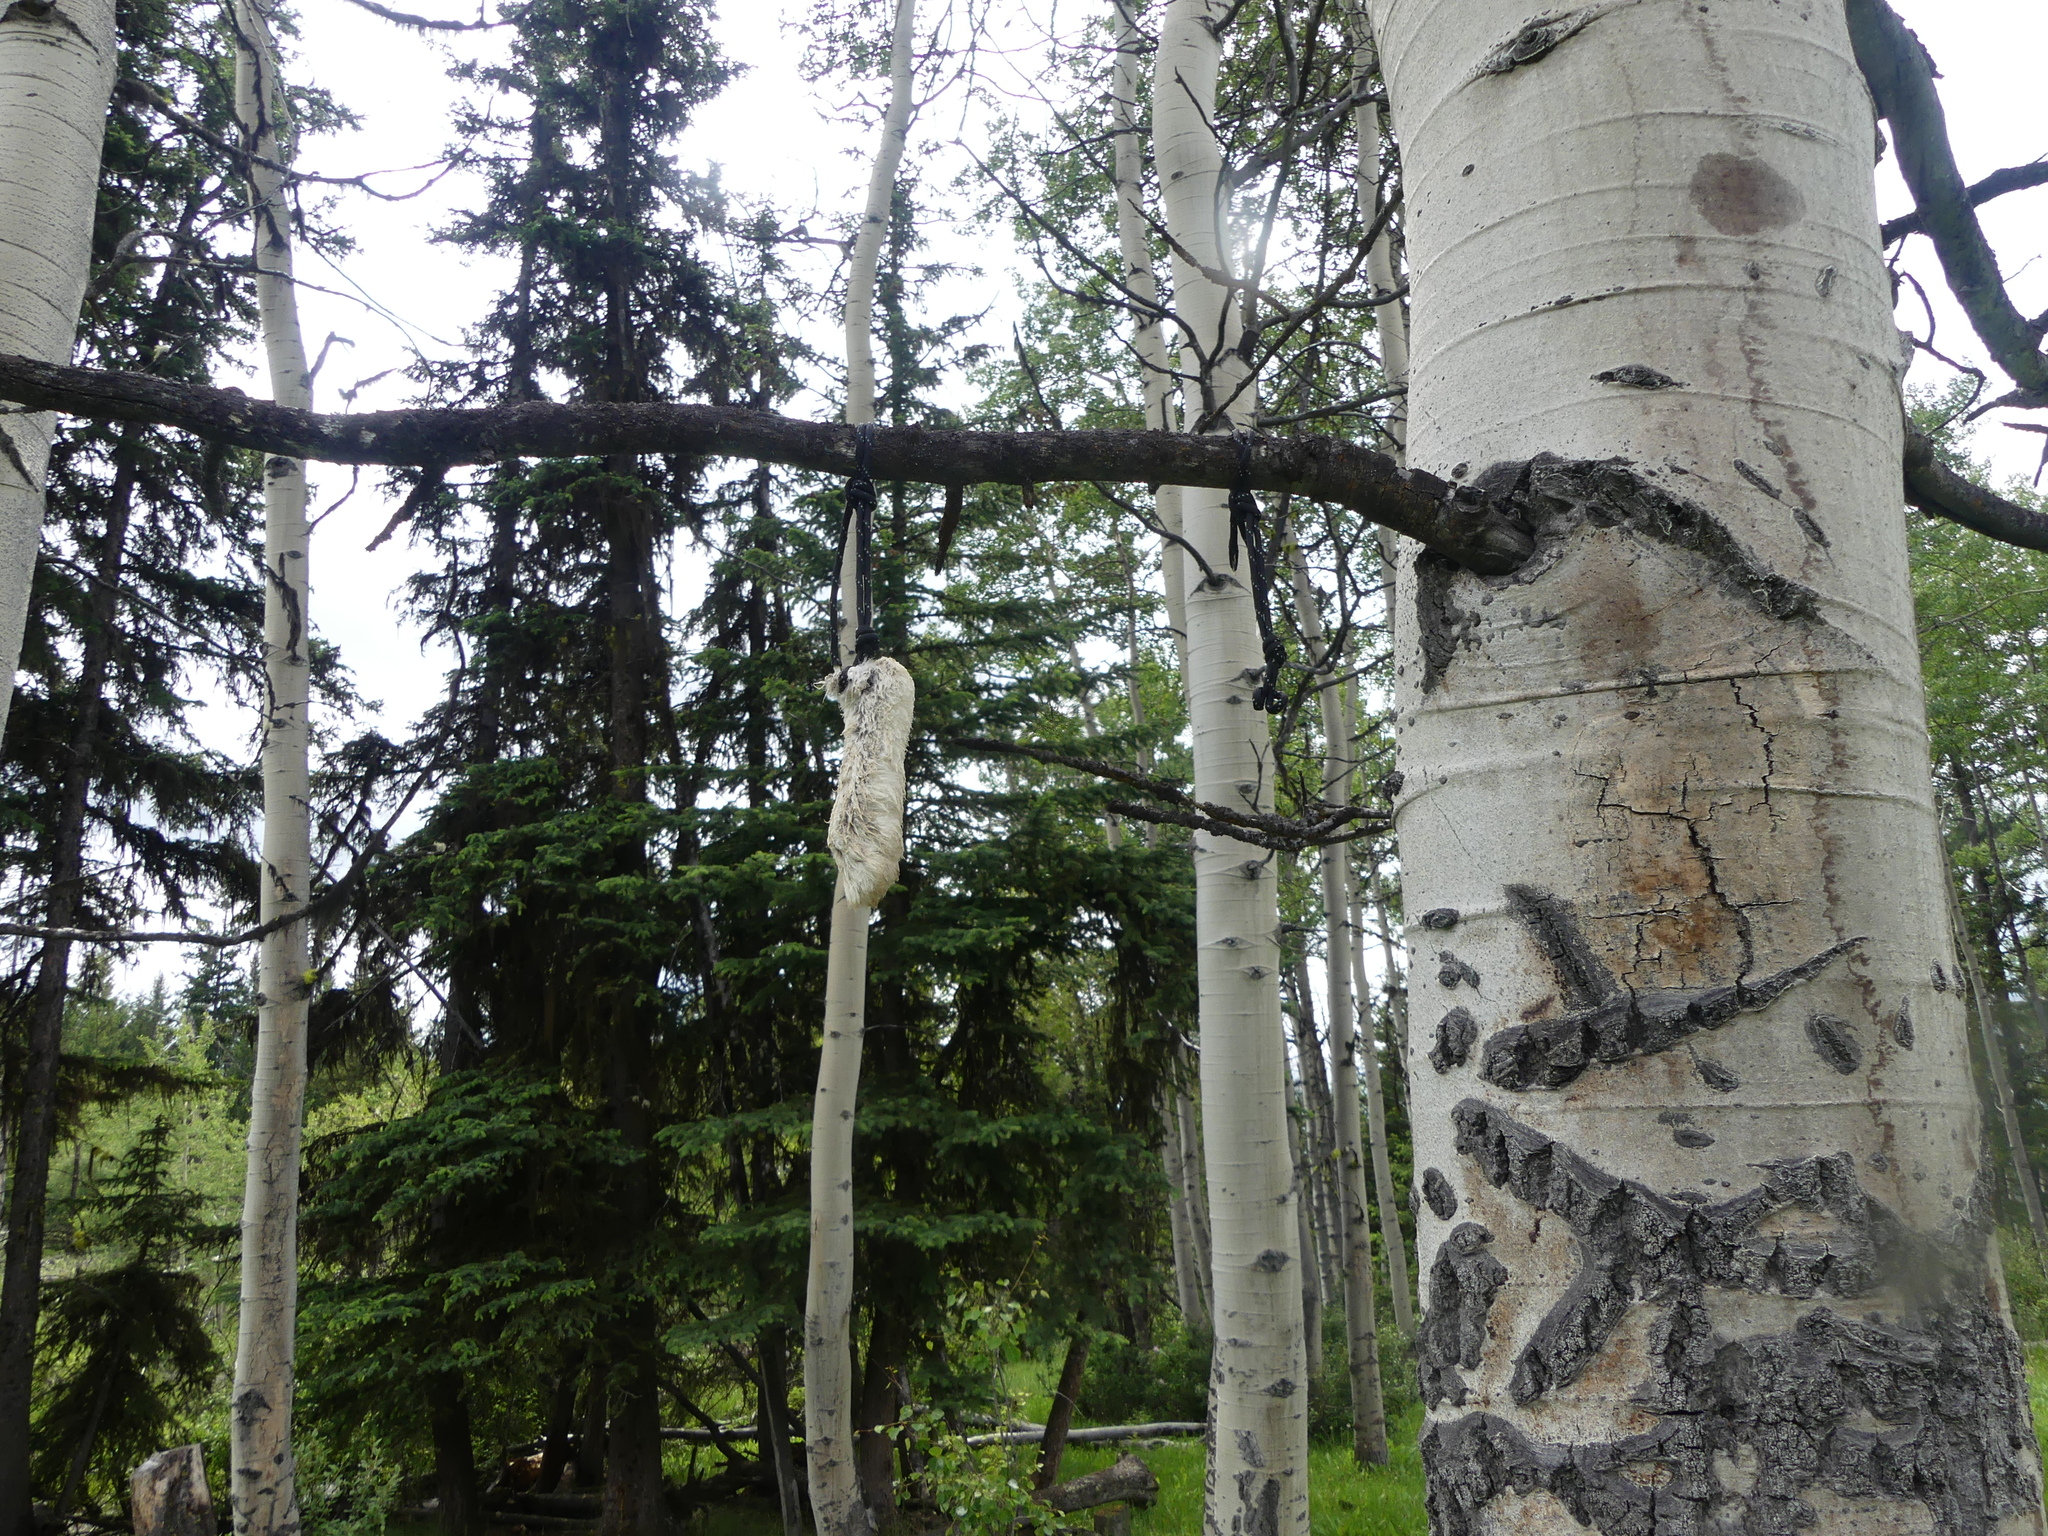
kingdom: Animalia
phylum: Chordata
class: Mammalia
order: Lagomorpha
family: Leporidae
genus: Lepus
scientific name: Lepus americanus
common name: Snowshoe hare
